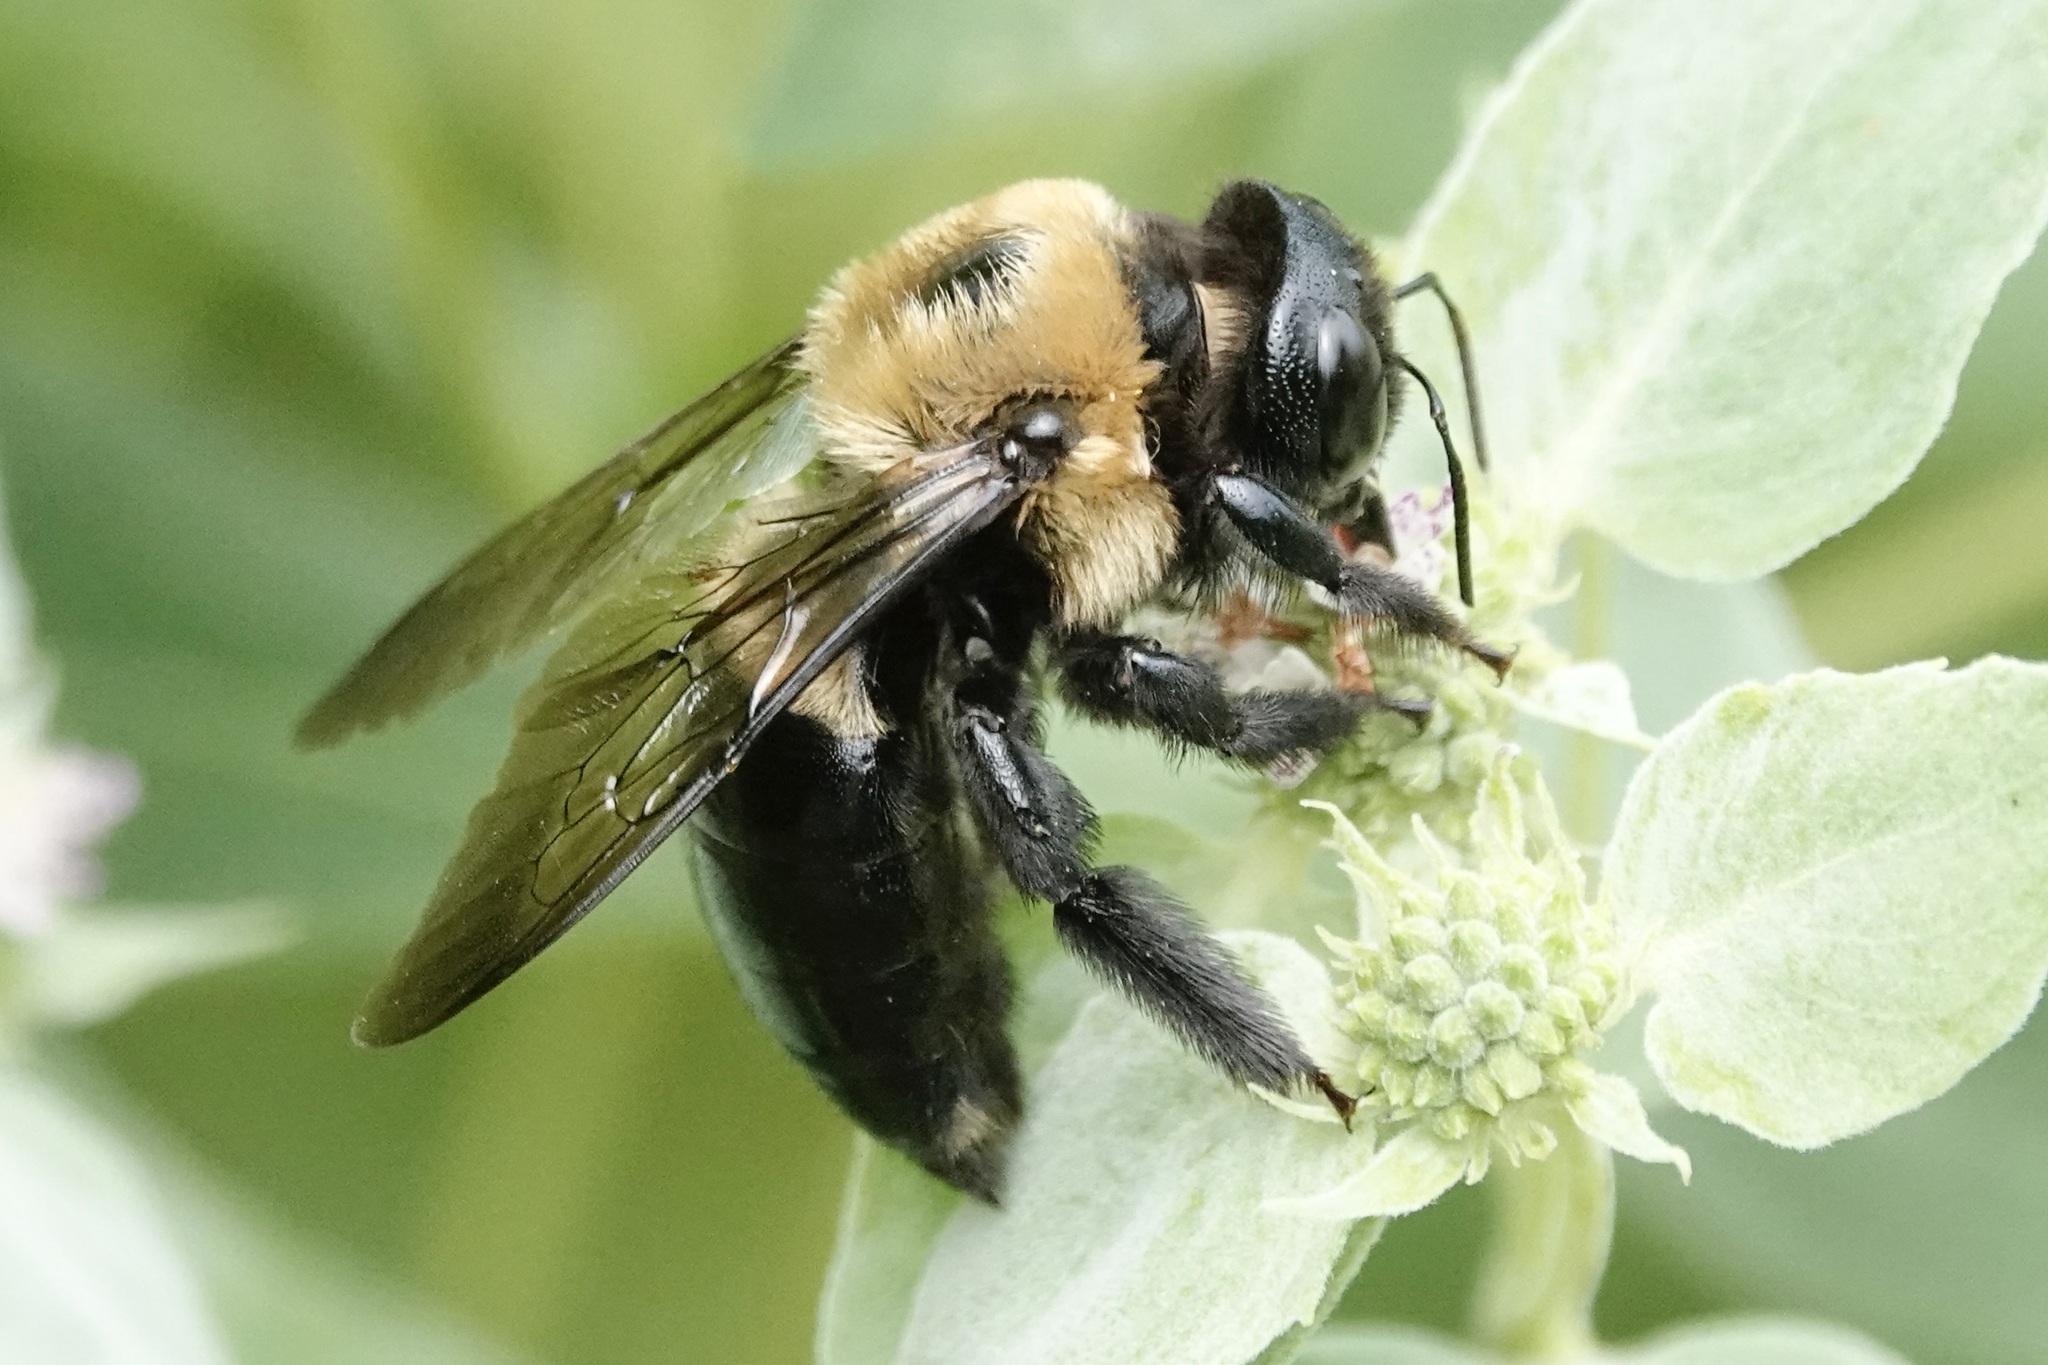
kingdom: Animalia
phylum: Arthropoda
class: Insecta
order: Hymenoptera
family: Apidae
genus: Xylocopa
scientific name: Xylocopa virginica
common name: Carpenter bee
